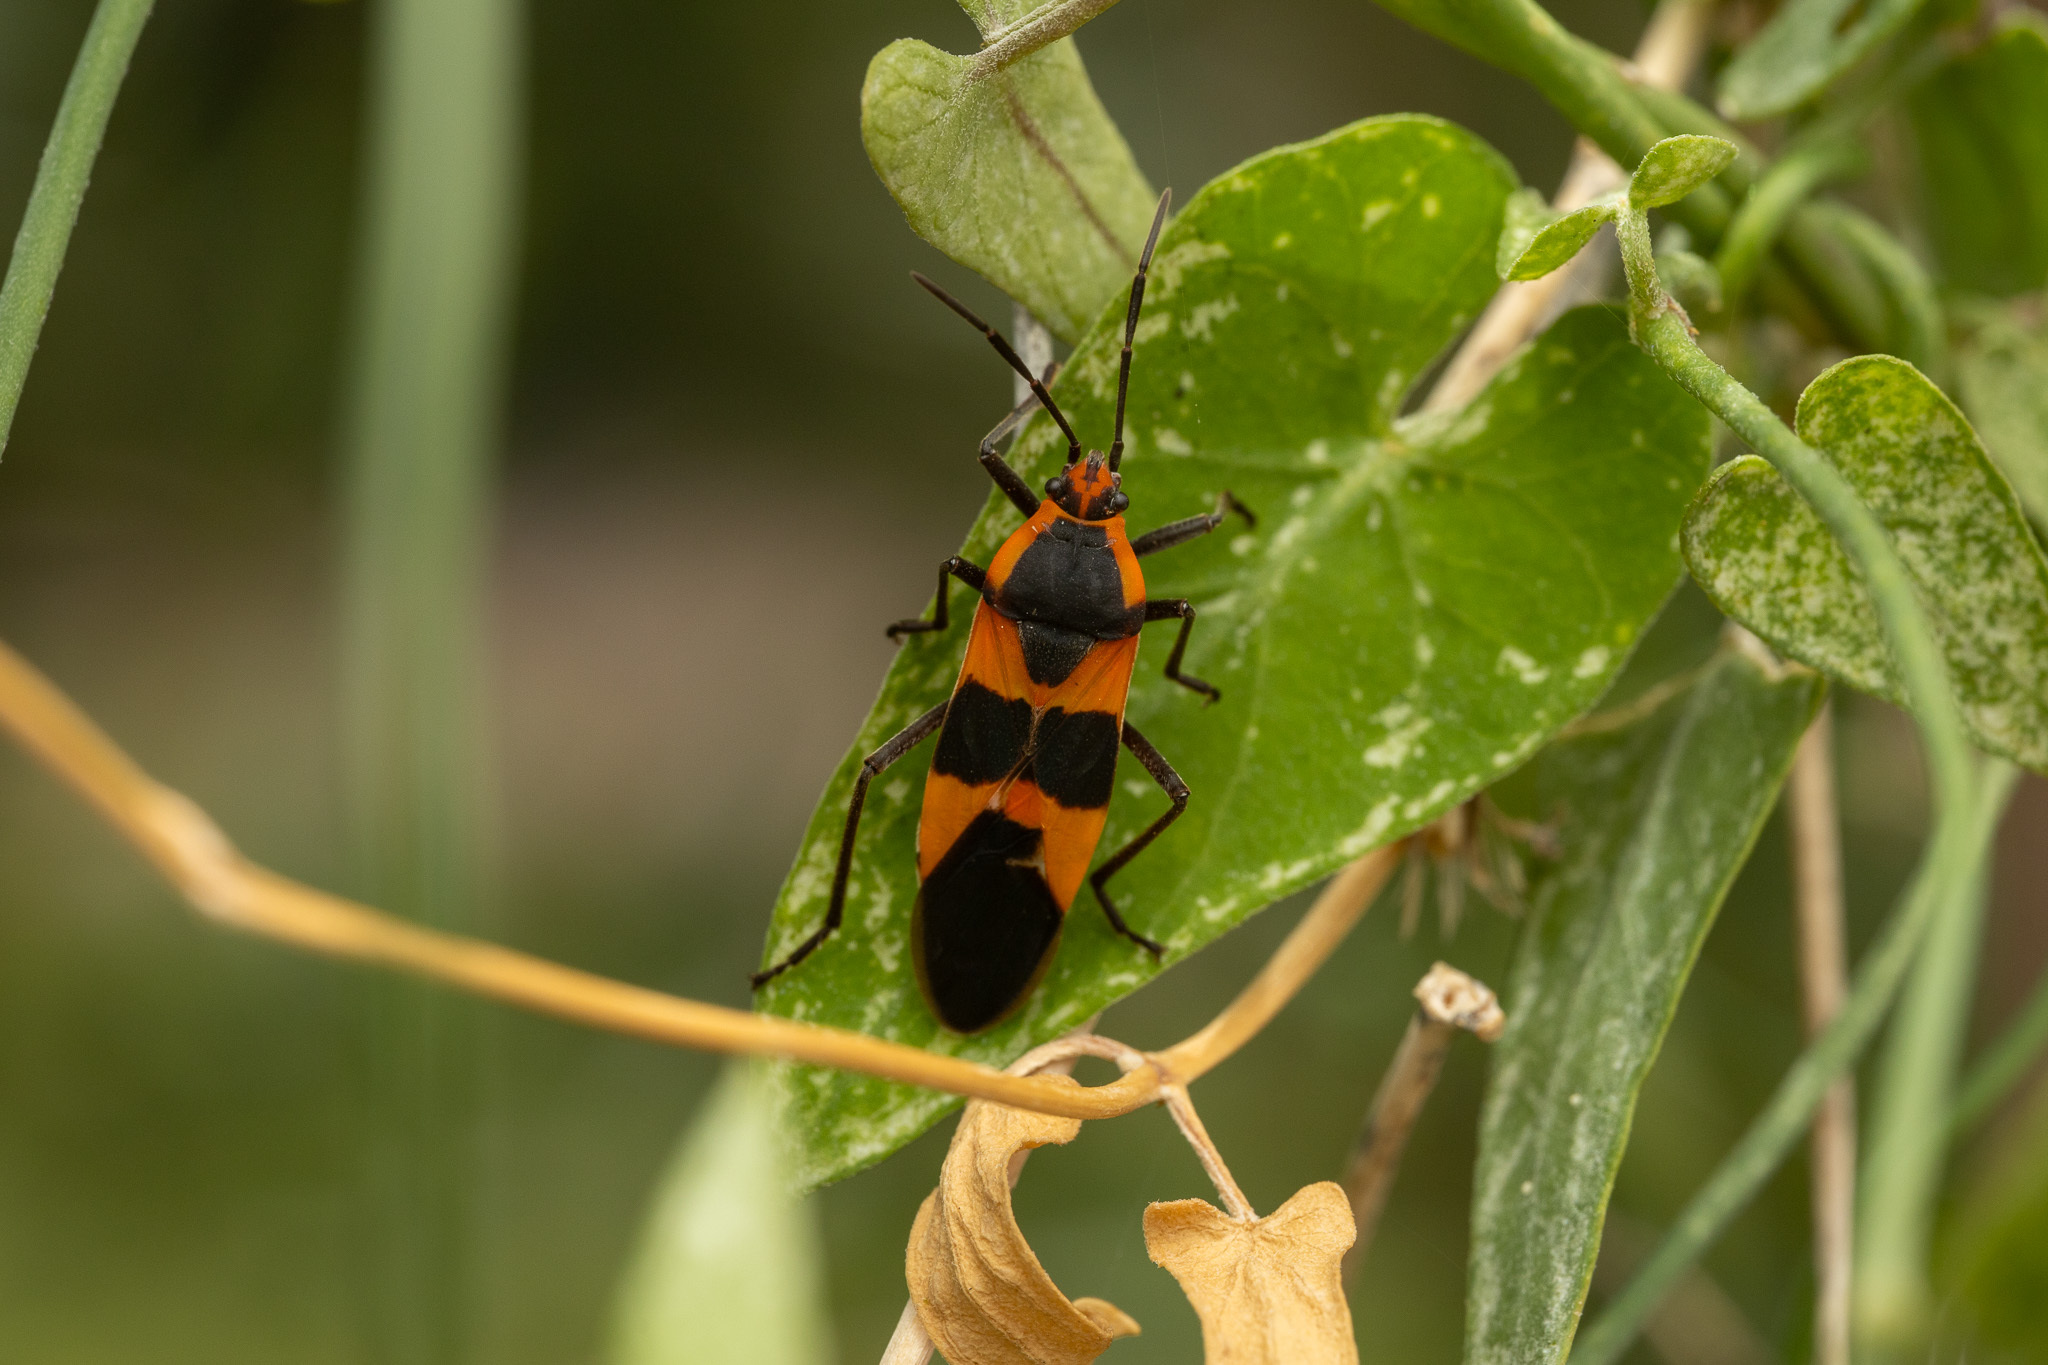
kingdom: Animalia
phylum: Arthropoda
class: Insecta
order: Hemiptera
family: Lygaeidae
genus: Oncopeltus
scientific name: Oncopeltus fasciatus
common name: Large milkweed bug
